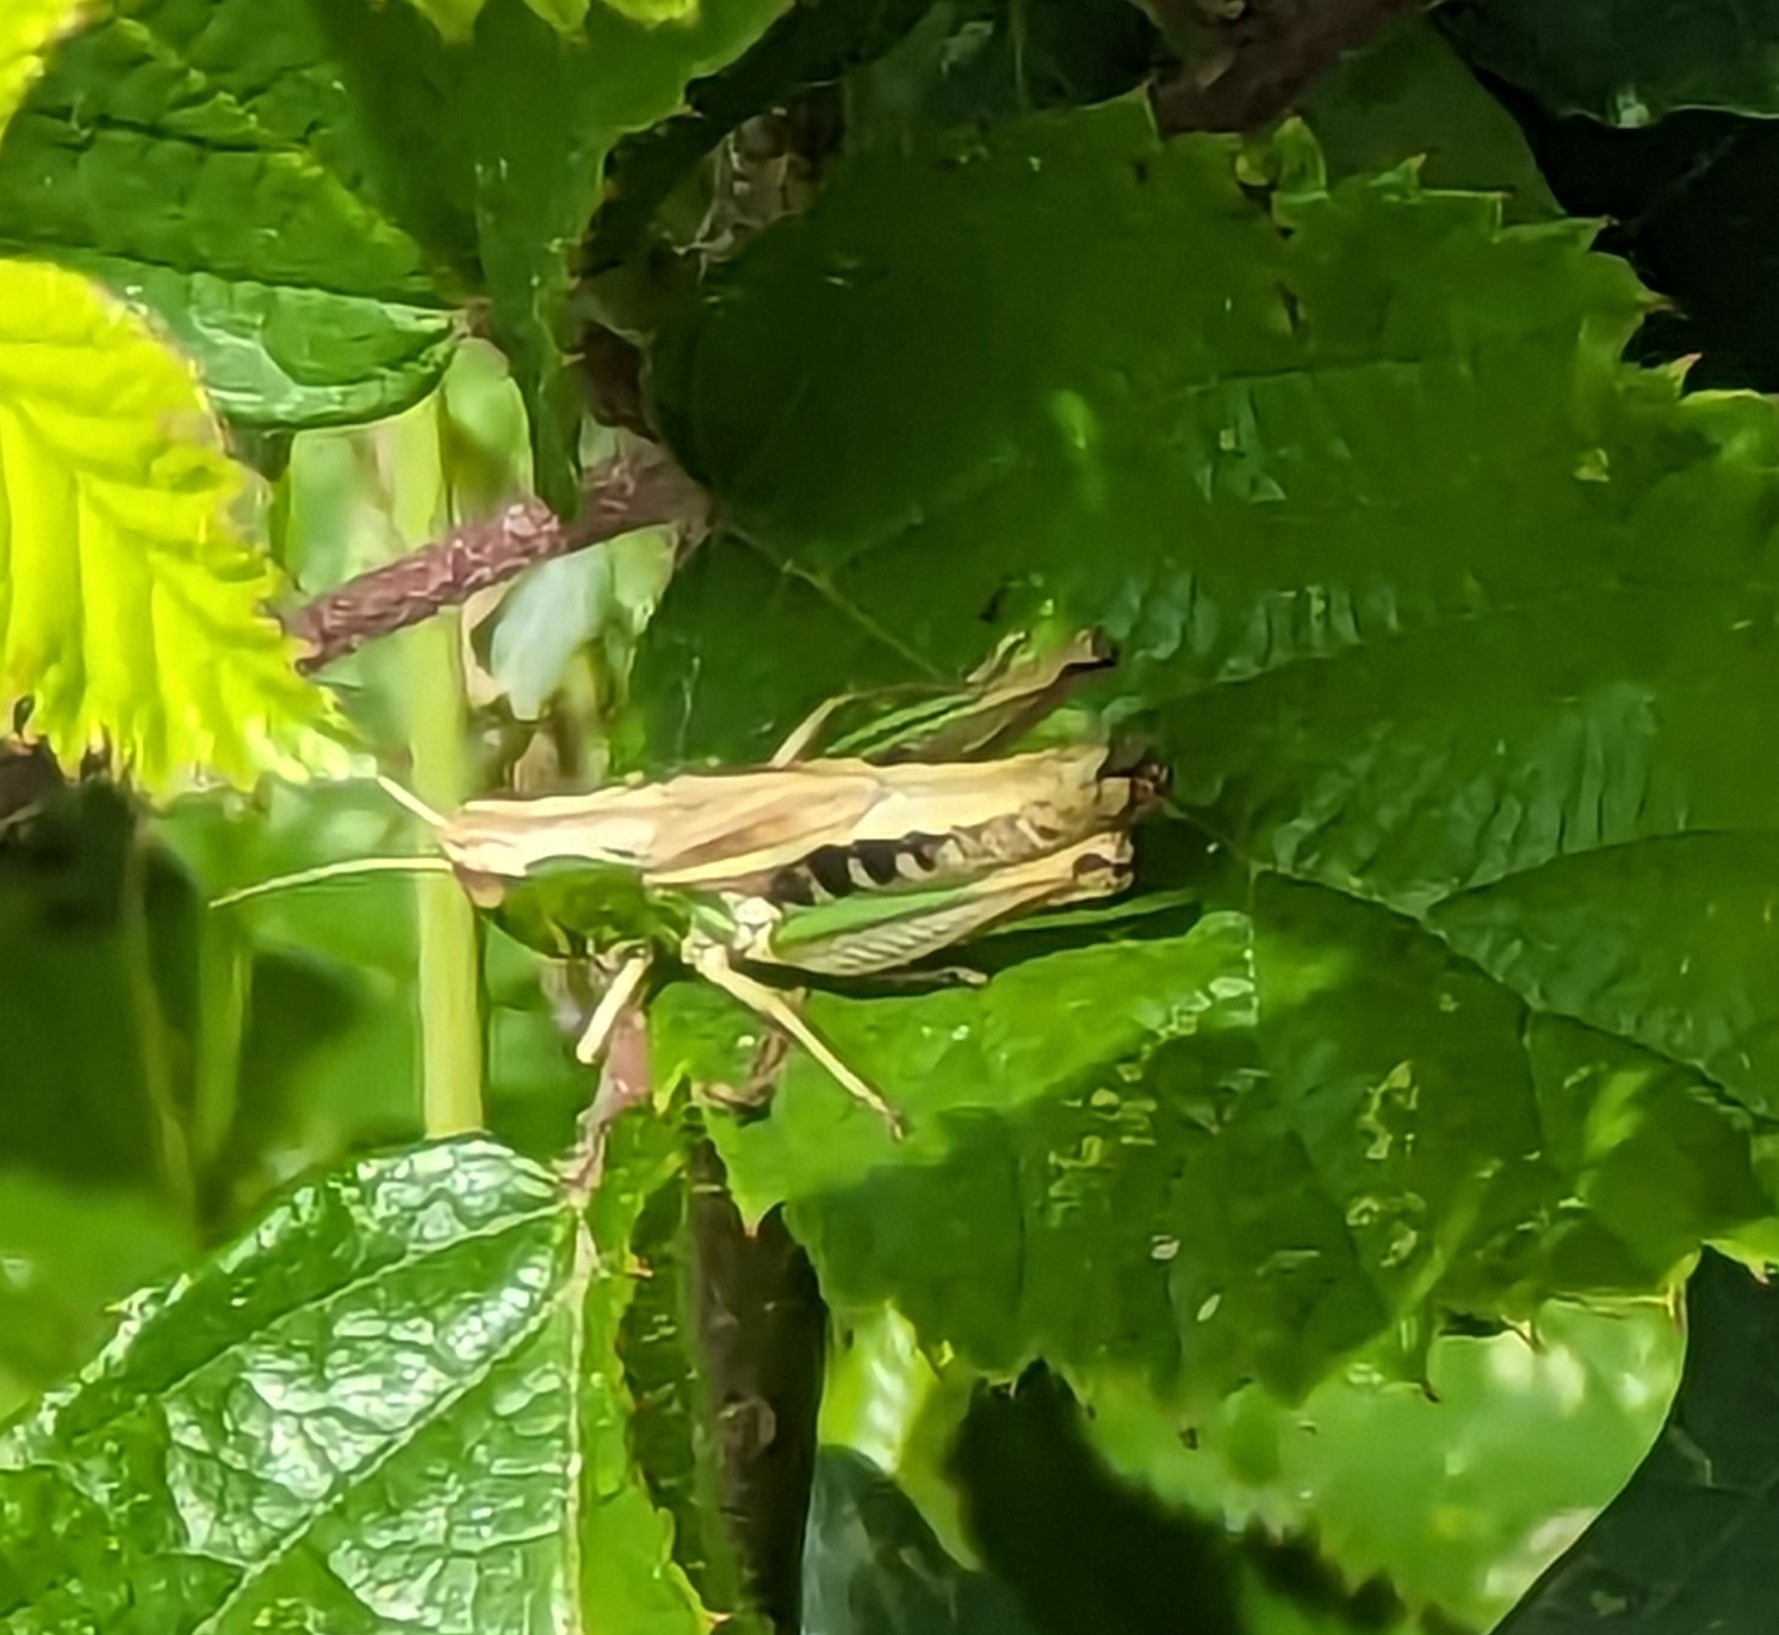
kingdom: Animalia
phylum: Arthropoda
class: Insecta
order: Orthoptera
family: Acrididae
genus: Pseudochorthippus
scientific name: Pseudochorthippus parallelus
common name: Meadow grasshopper
